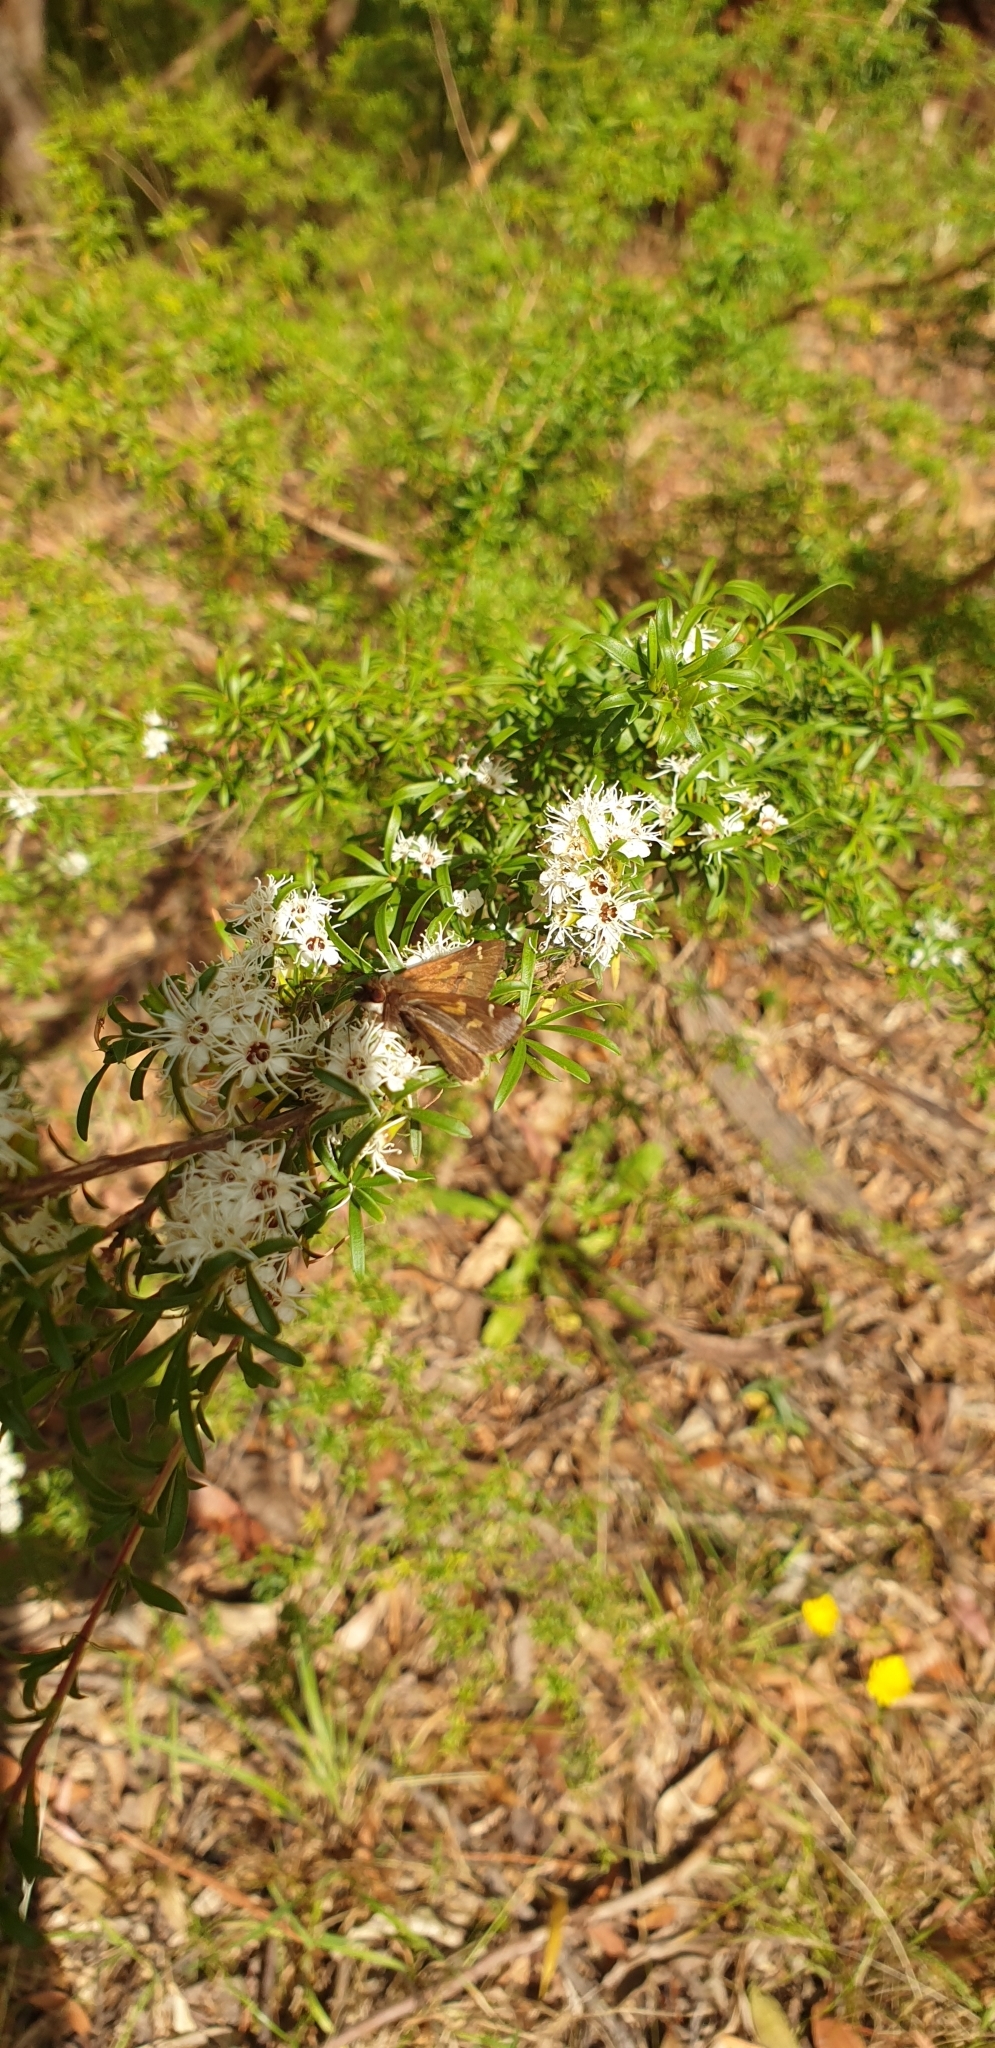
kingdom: Animalia
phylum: Arthropoda
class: Insecta
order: Lepidoptera
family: Hesperiidae
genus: Toxidia
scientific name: Toxidia doubledayi
